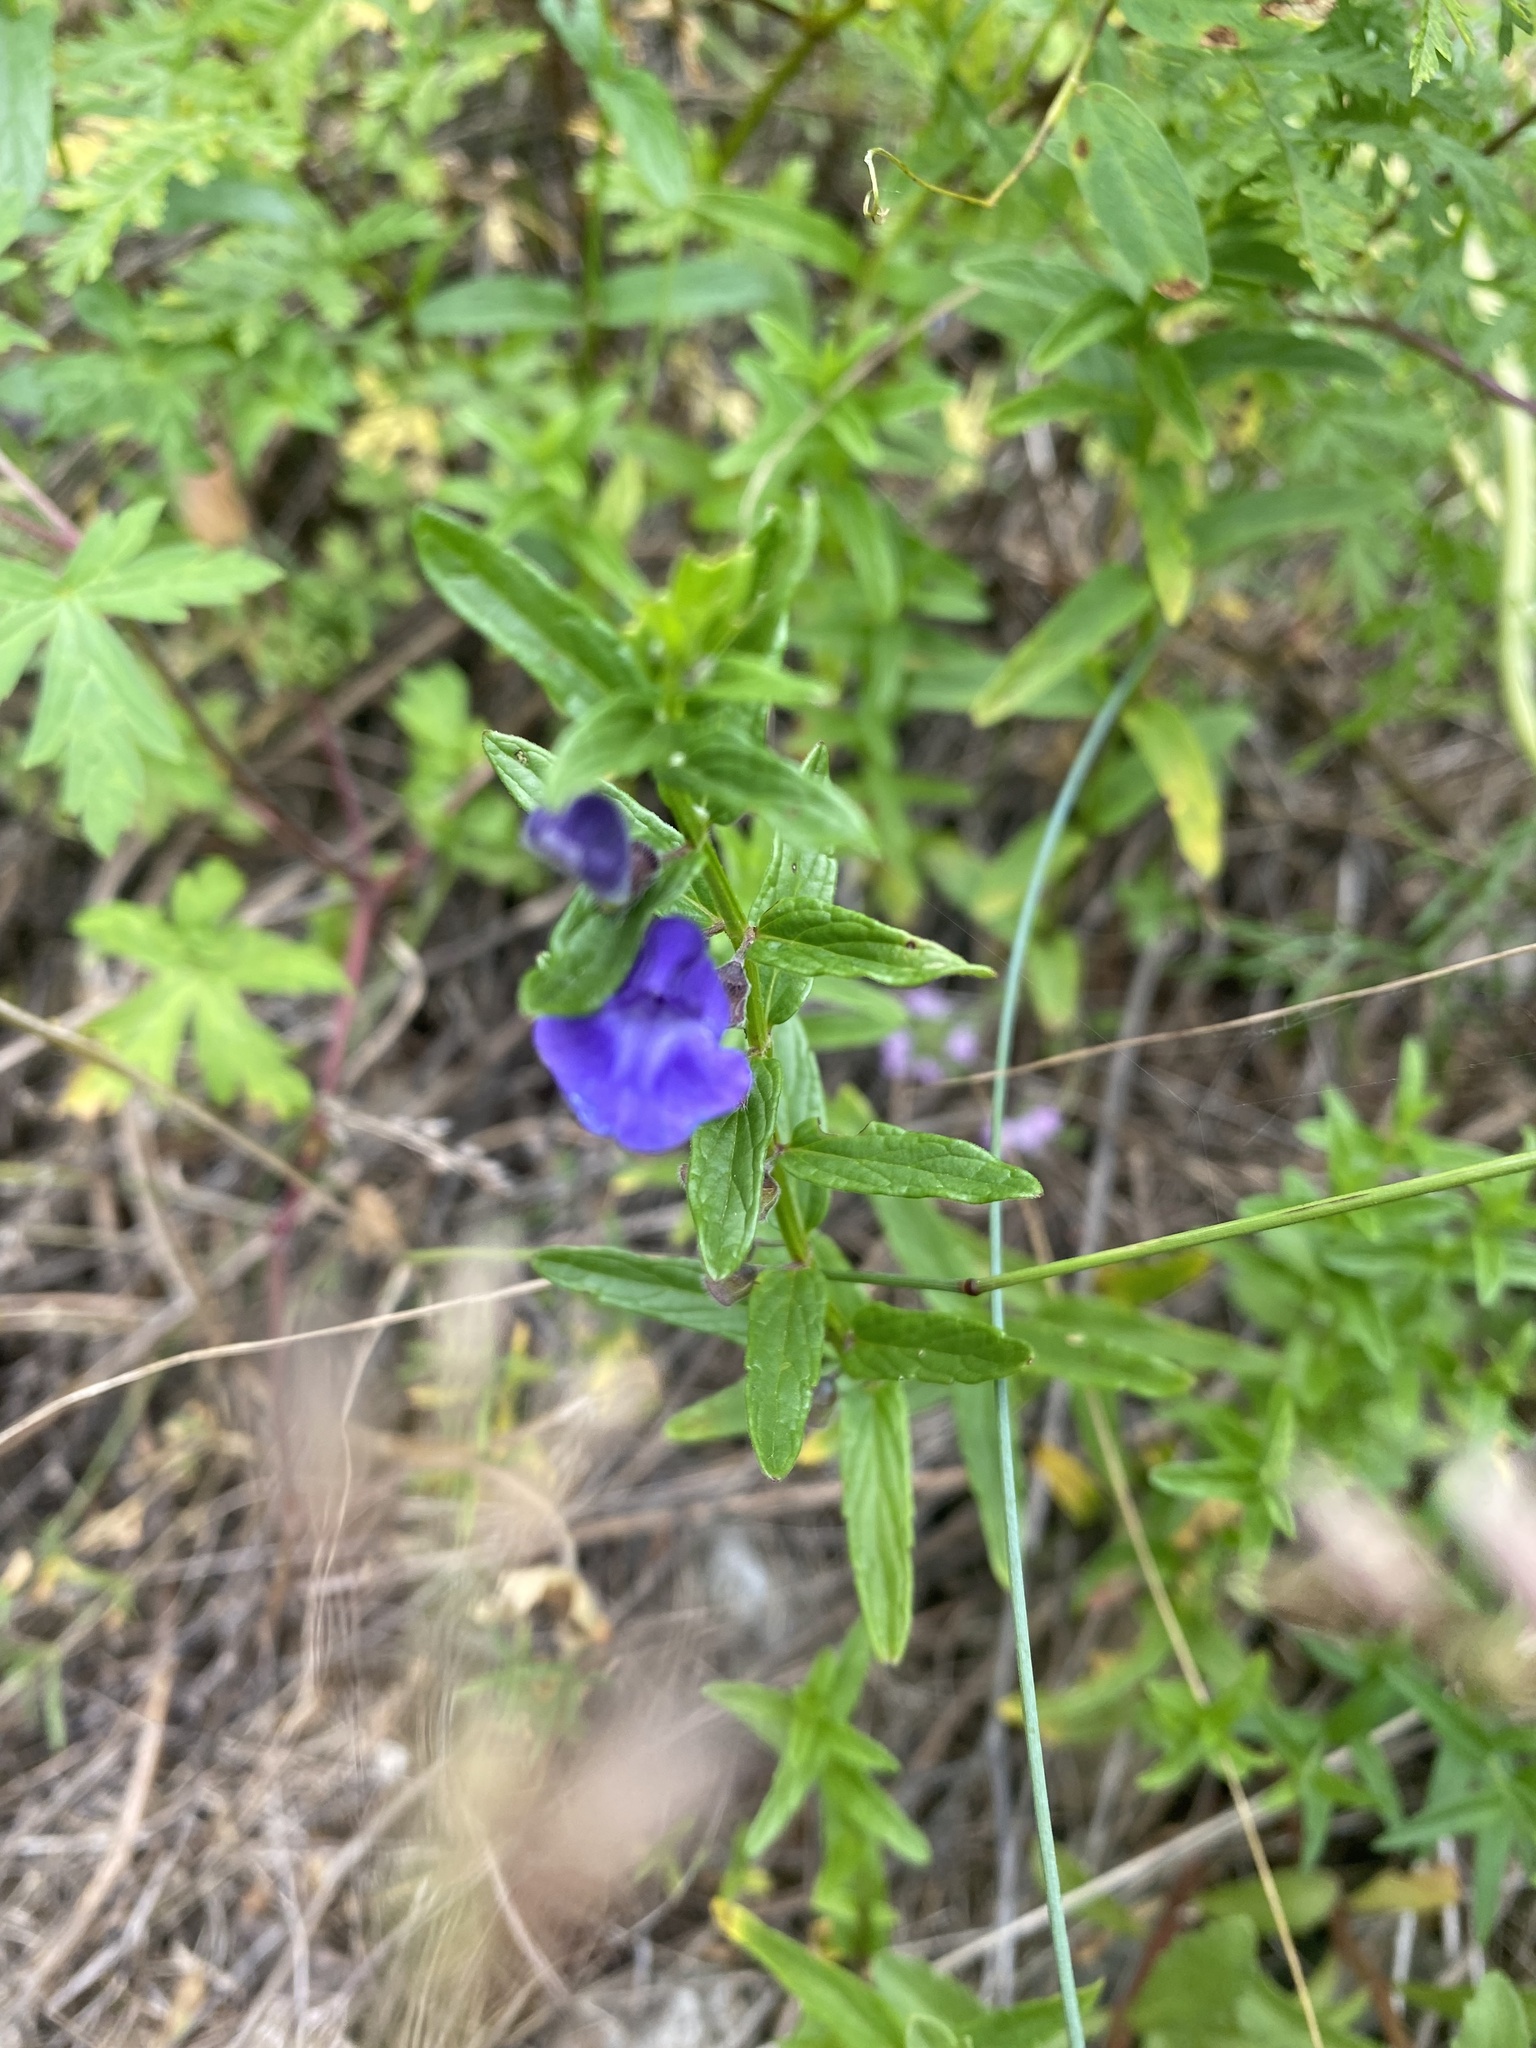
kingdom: Plantae
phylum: Tracheophyta
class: Magnoliopsida
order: Lamiales
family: Lamiaceae
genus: Scutellaria
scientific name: Scutellaria scordiifolia
